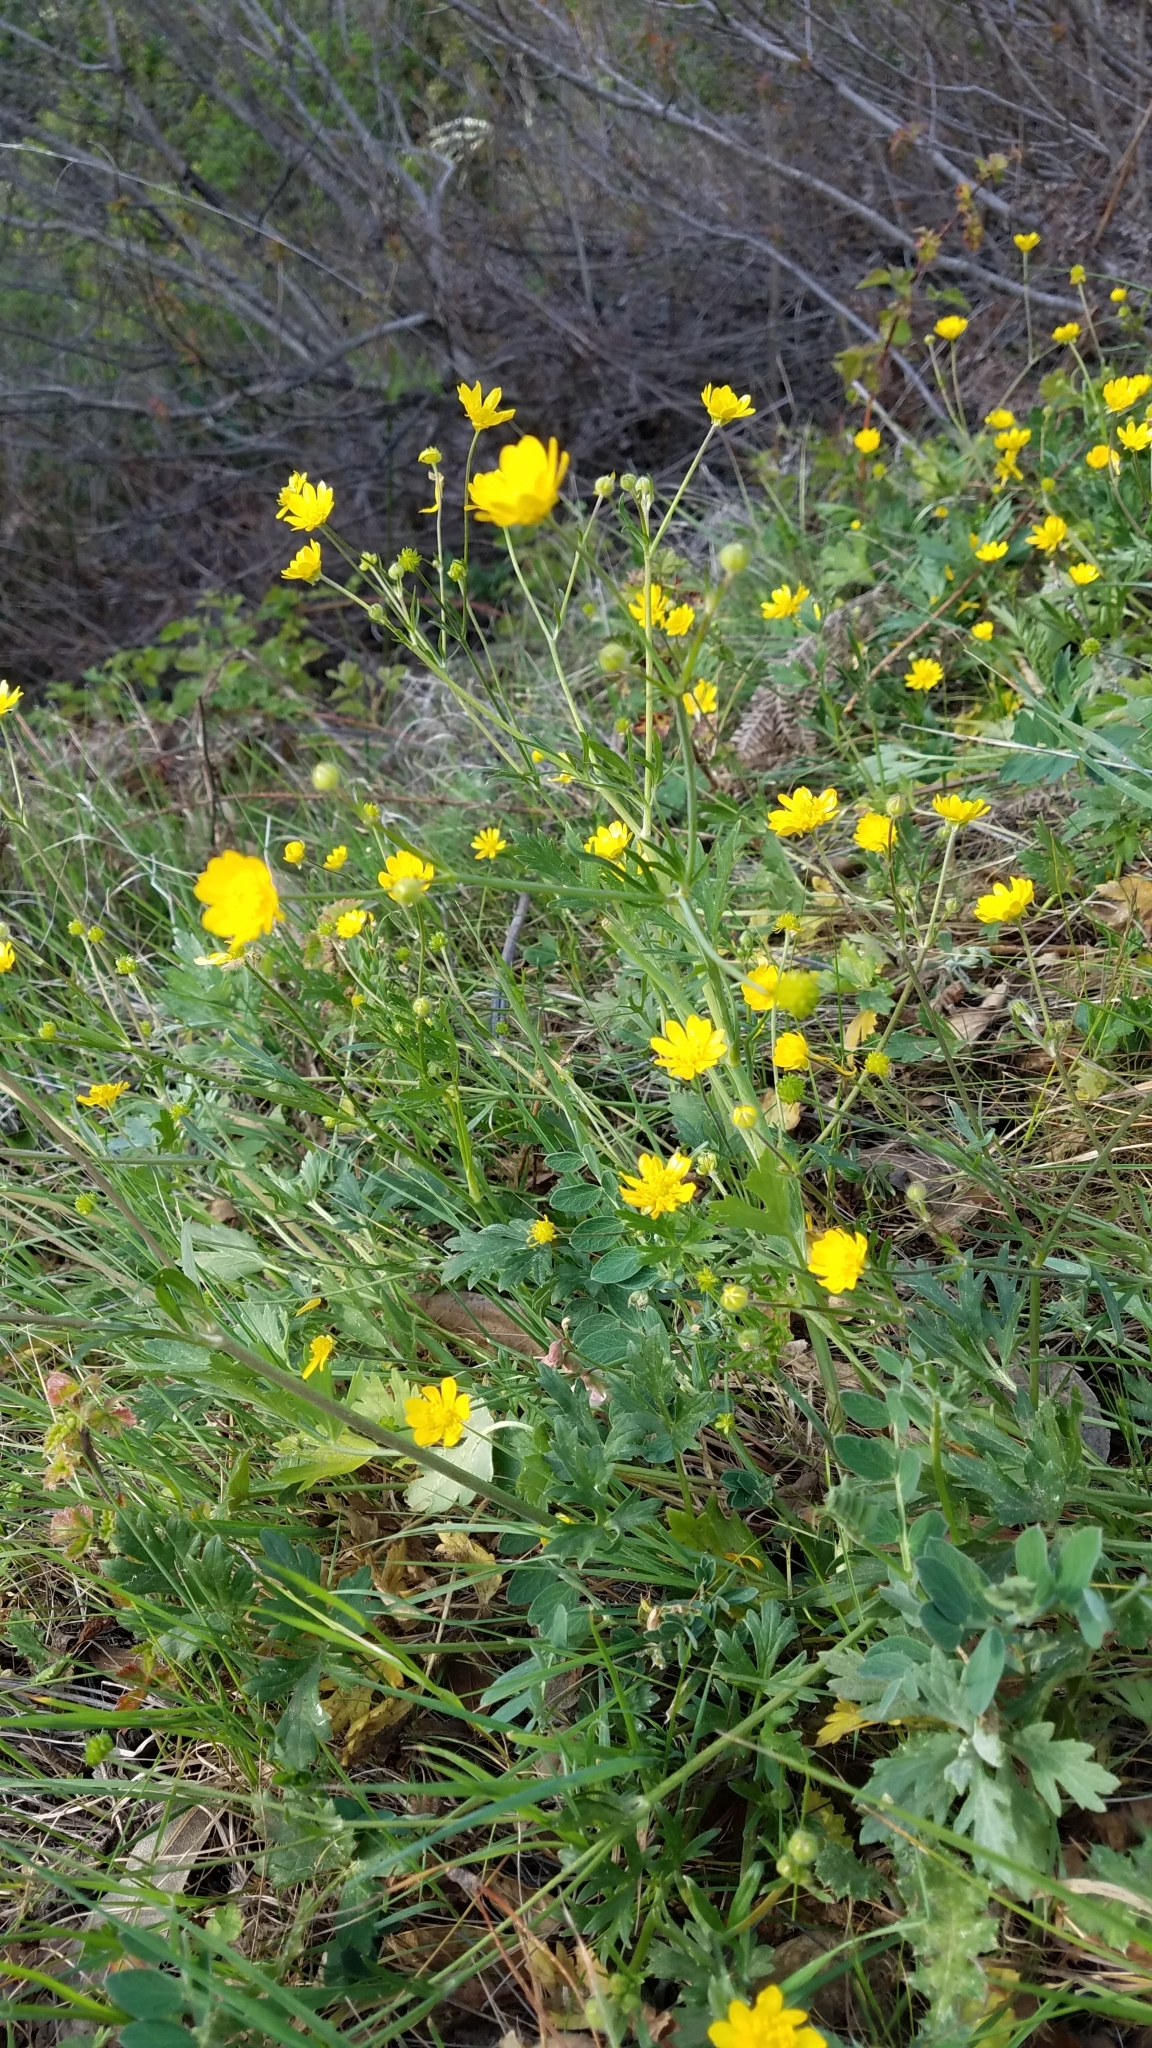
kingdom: Plantae
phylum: Tracheophyta
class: Magnoliopsida
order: Ranunculales
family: Ranunculaceae
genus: Ranunculus
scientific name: Ranunculus californicus
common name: California buttercup
